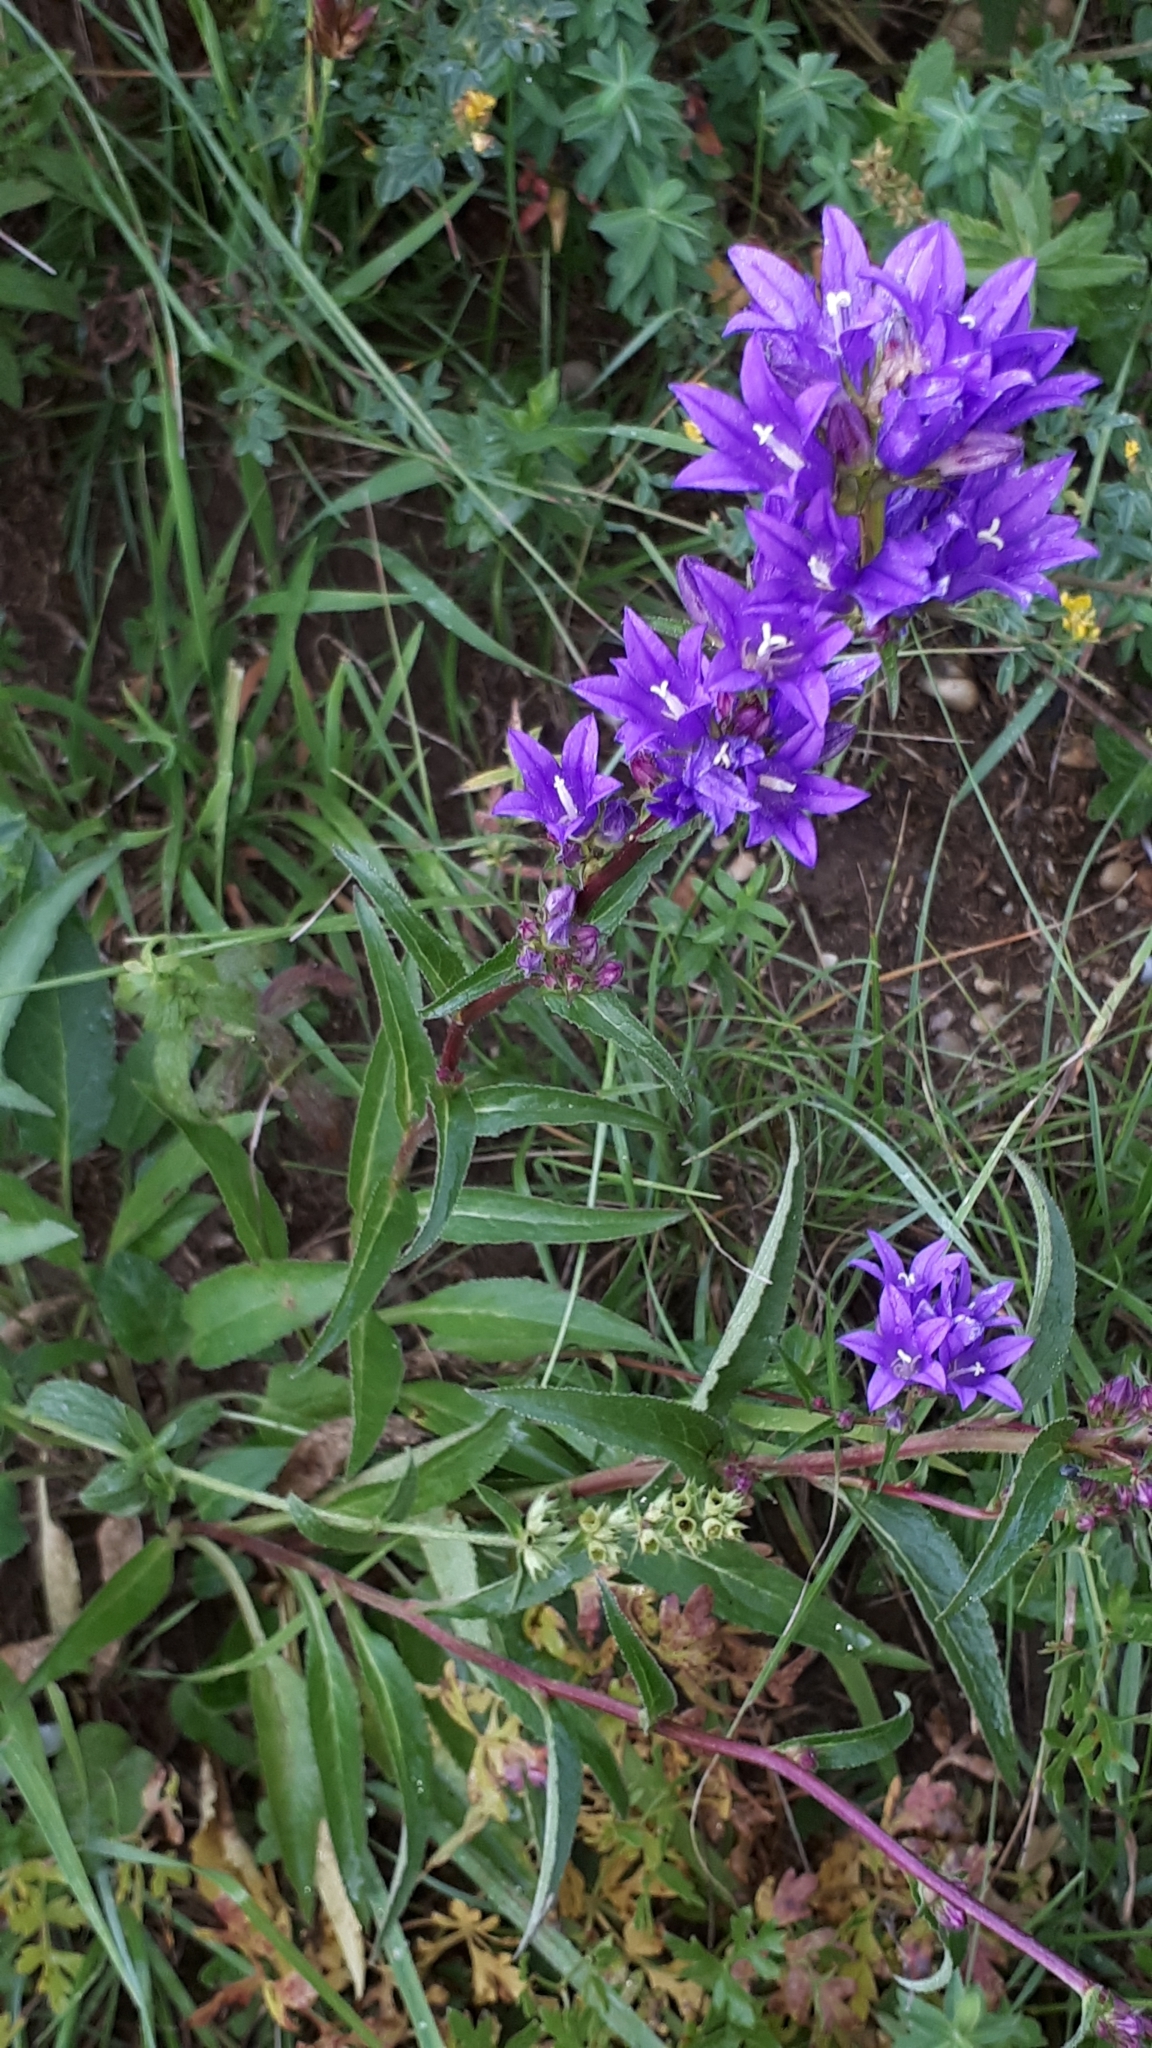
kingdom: Plantae
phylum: Tracheophyta
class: Magnoliopsida
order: Asterales
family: Campanulaceae
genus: Campanula
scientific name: Campanula glomerata
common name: Clustered bellflower
